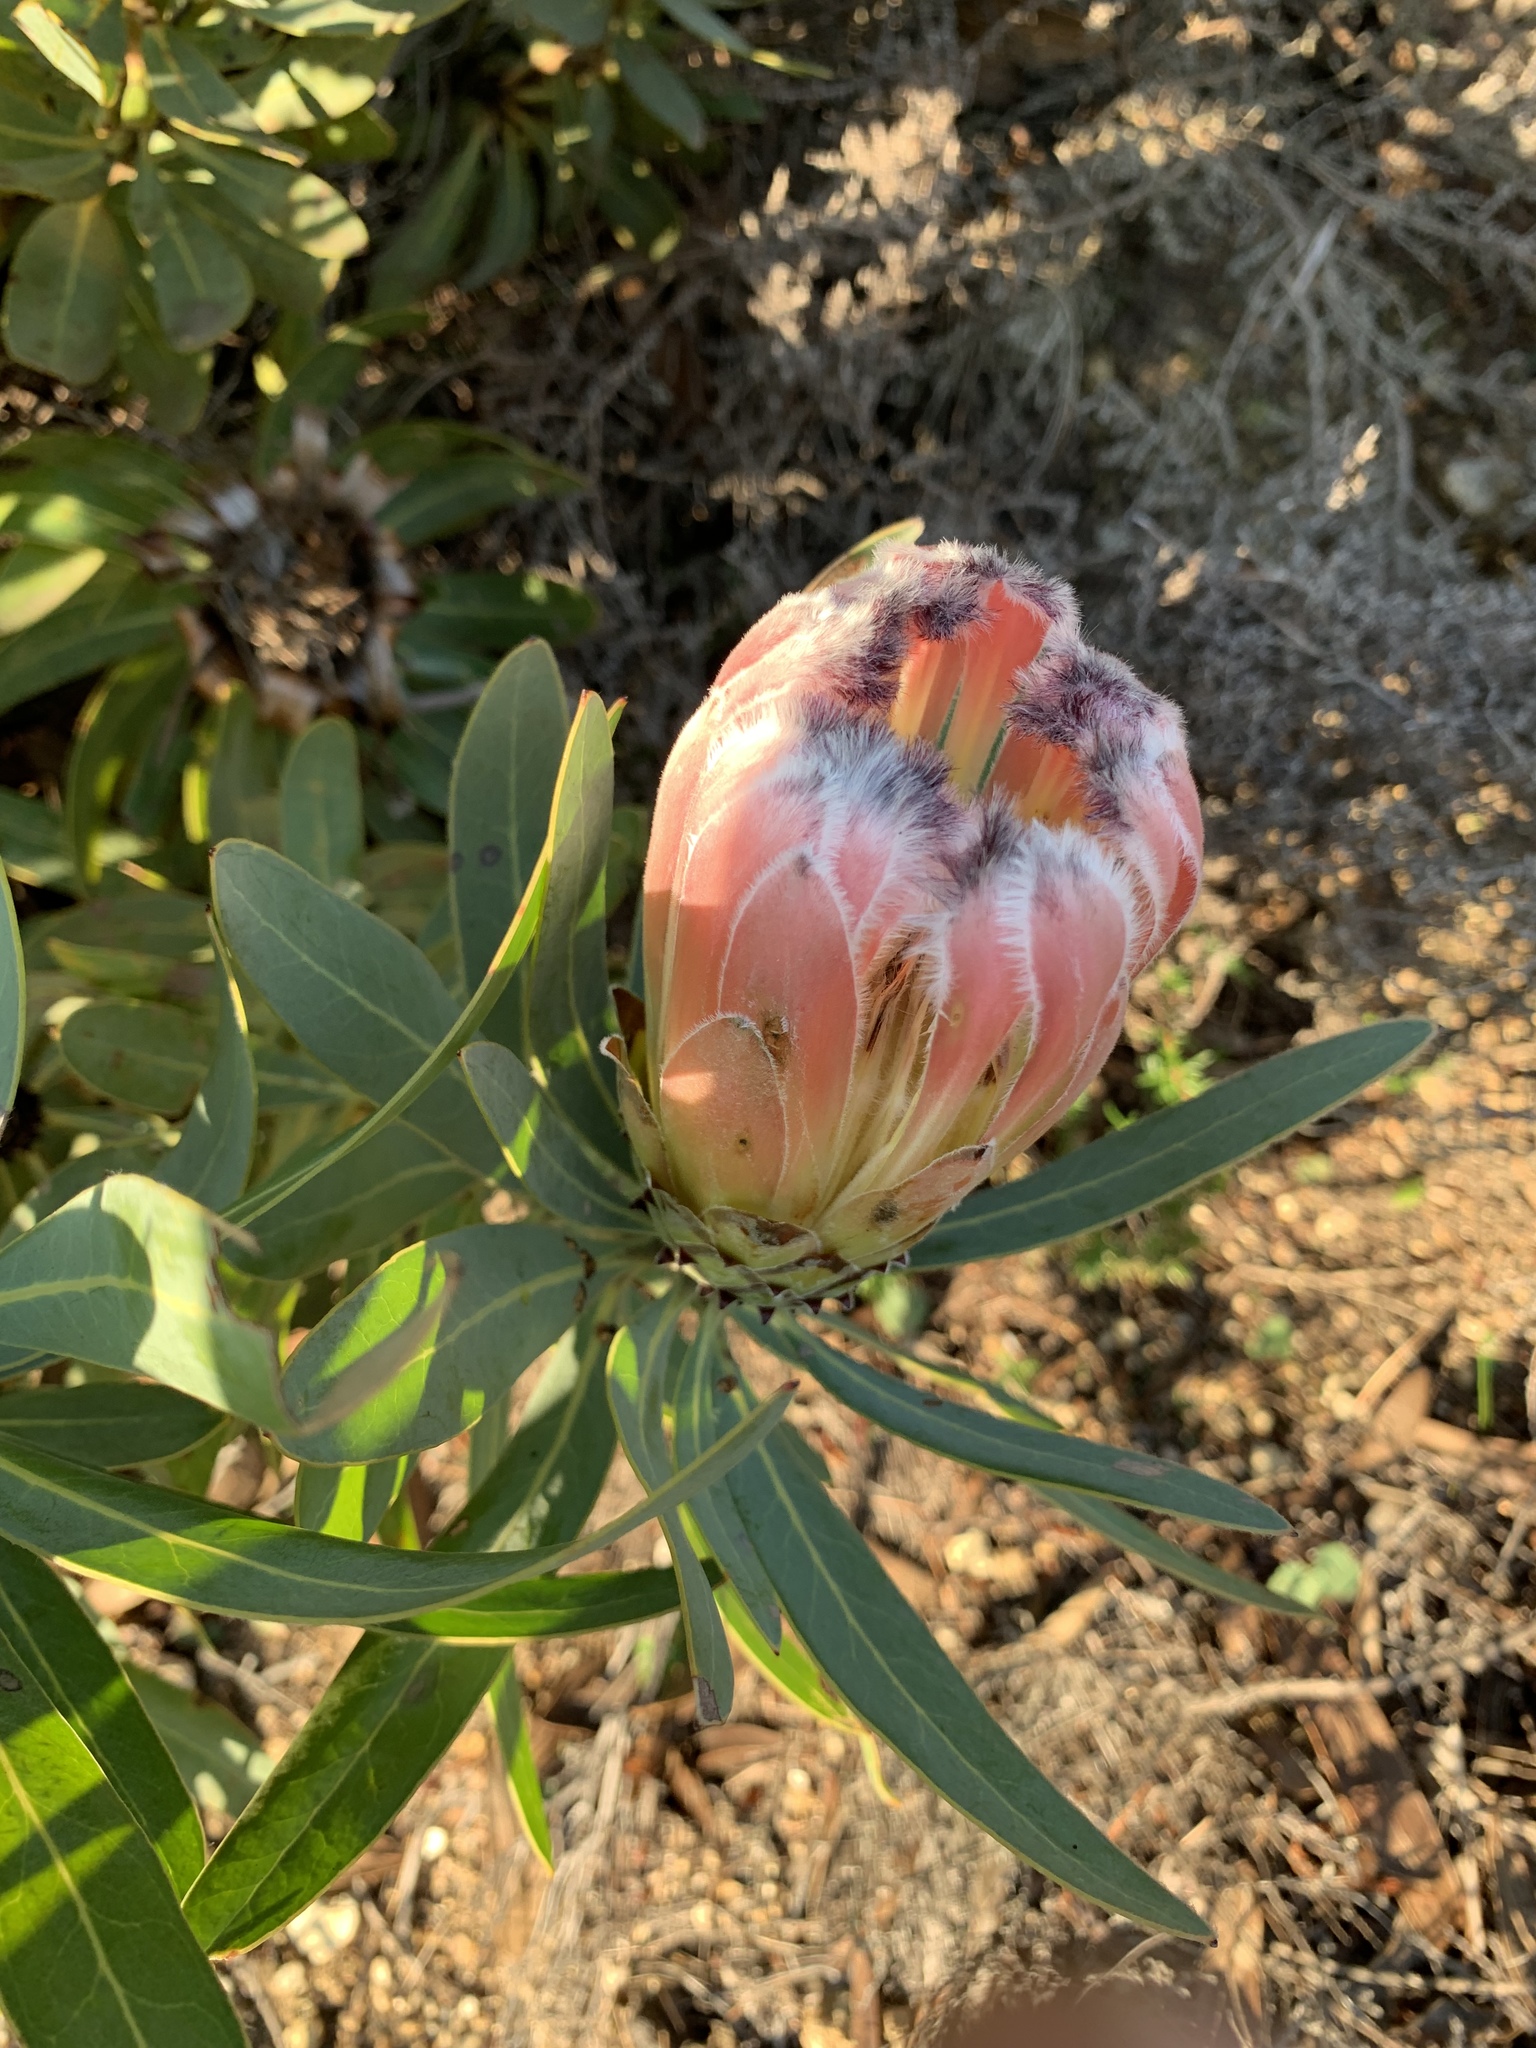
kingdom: Plantae
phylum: Tracheophyta
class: Magnoliopsida
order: Proteales
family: Proteaceae
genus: Protea
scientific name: Protea
